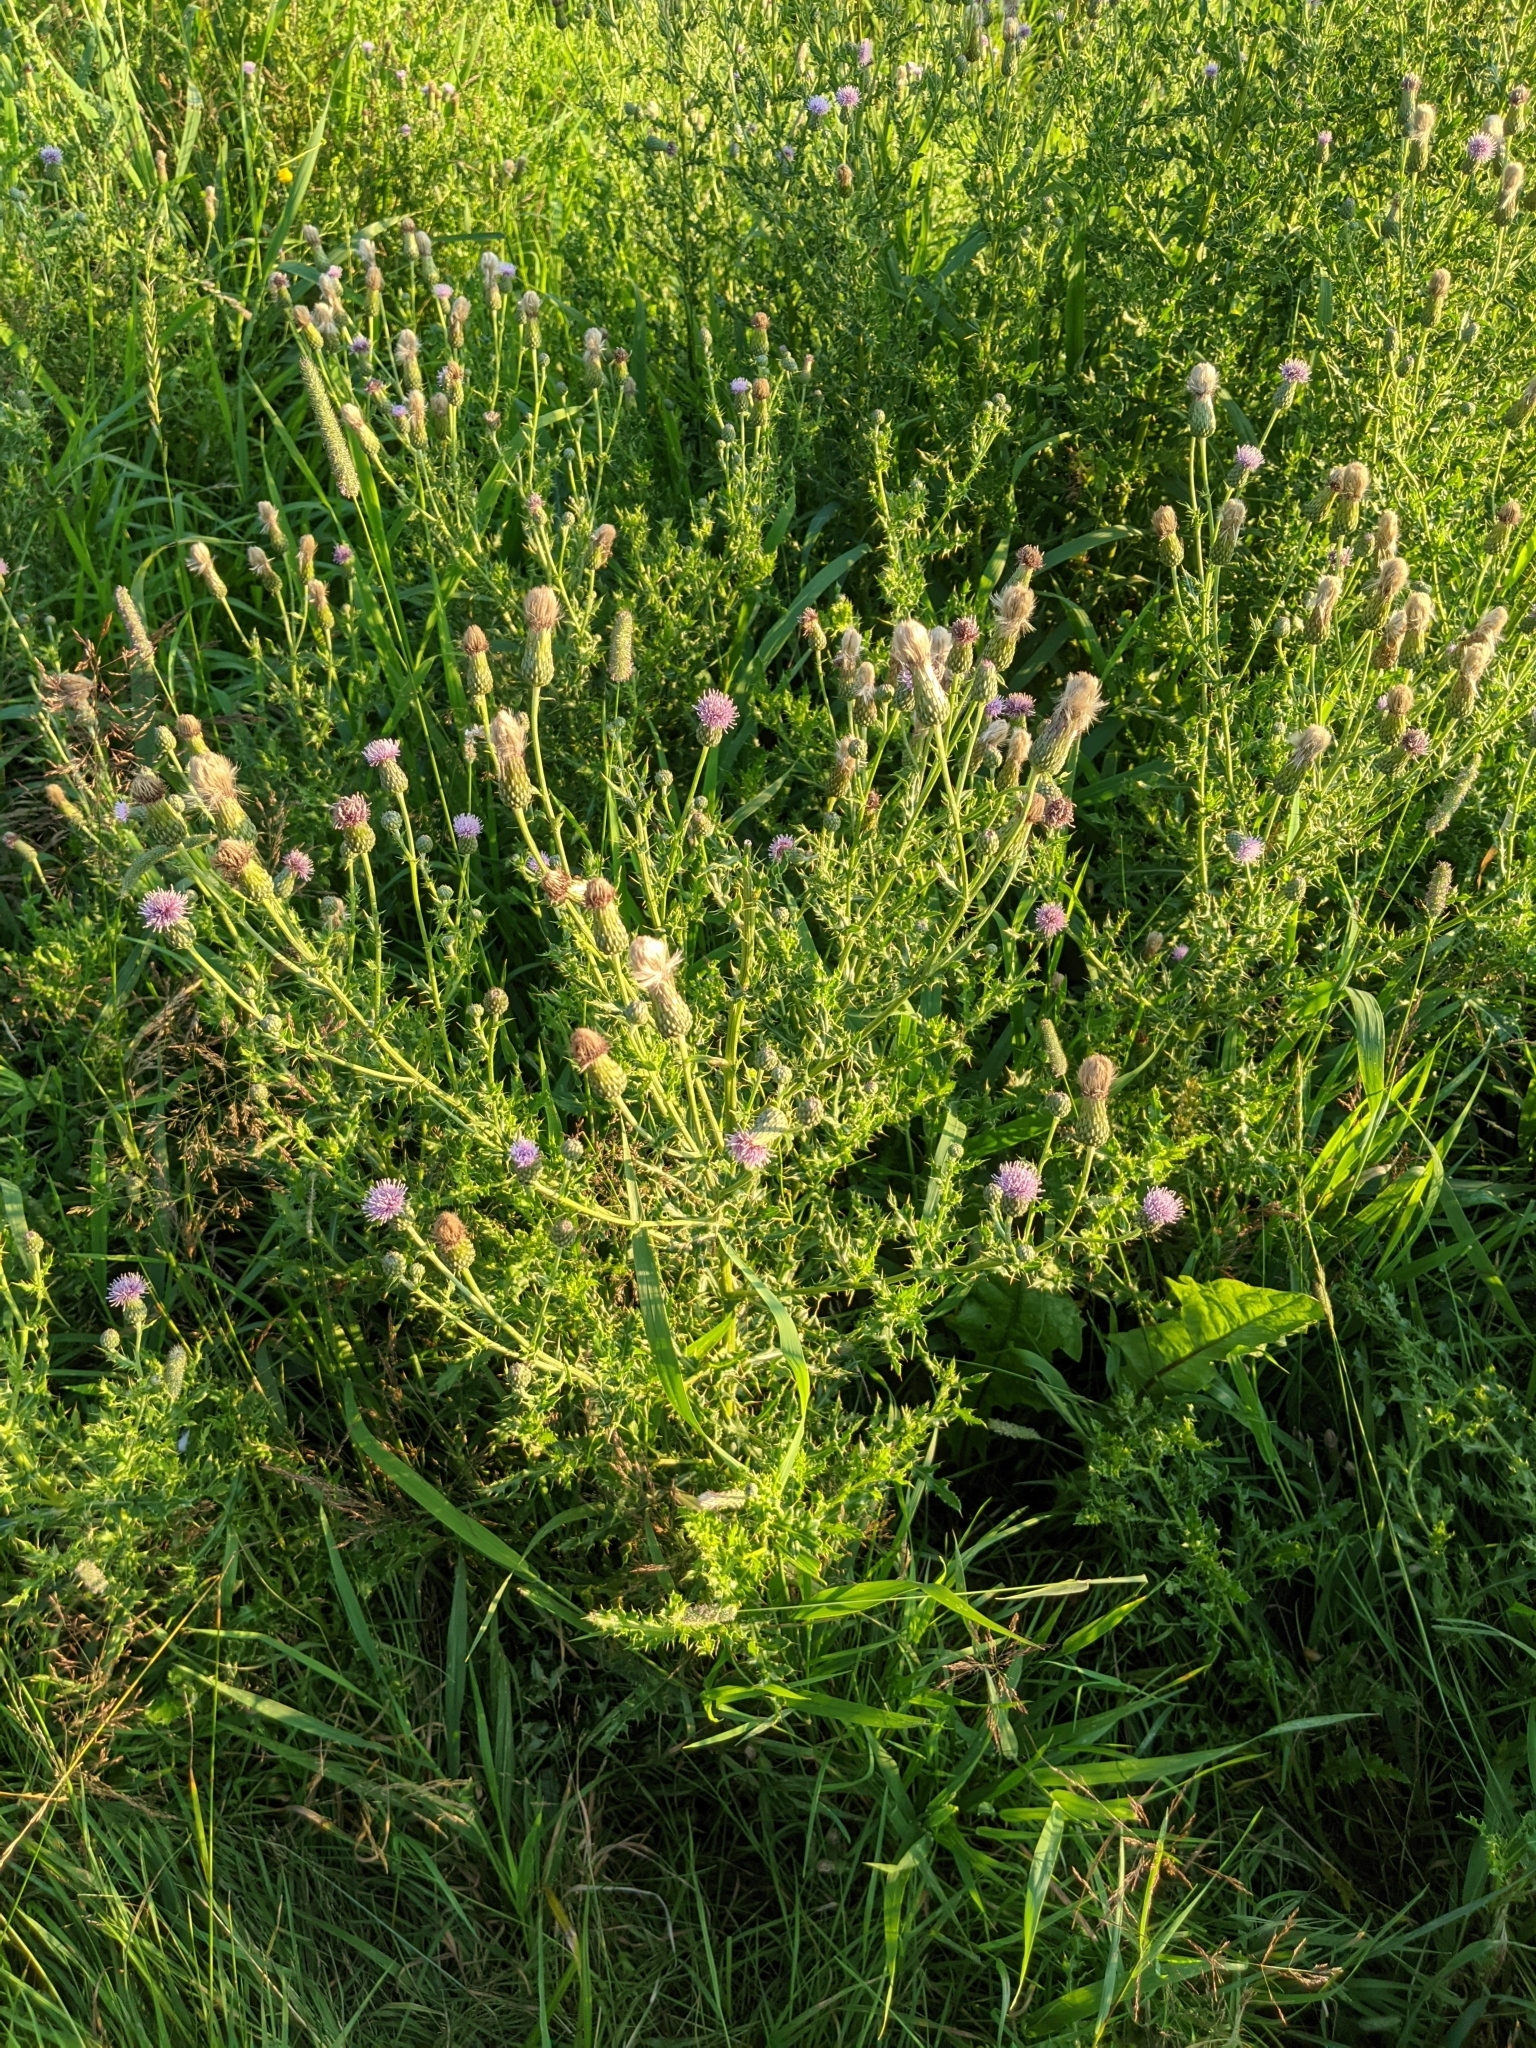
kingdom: Plantae
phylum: Tracheophyta
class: Magnoliopsida
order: Asterales
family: Asteraceae
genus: Cirsium
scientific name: Cirsium arvense
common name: Creeping thistle
